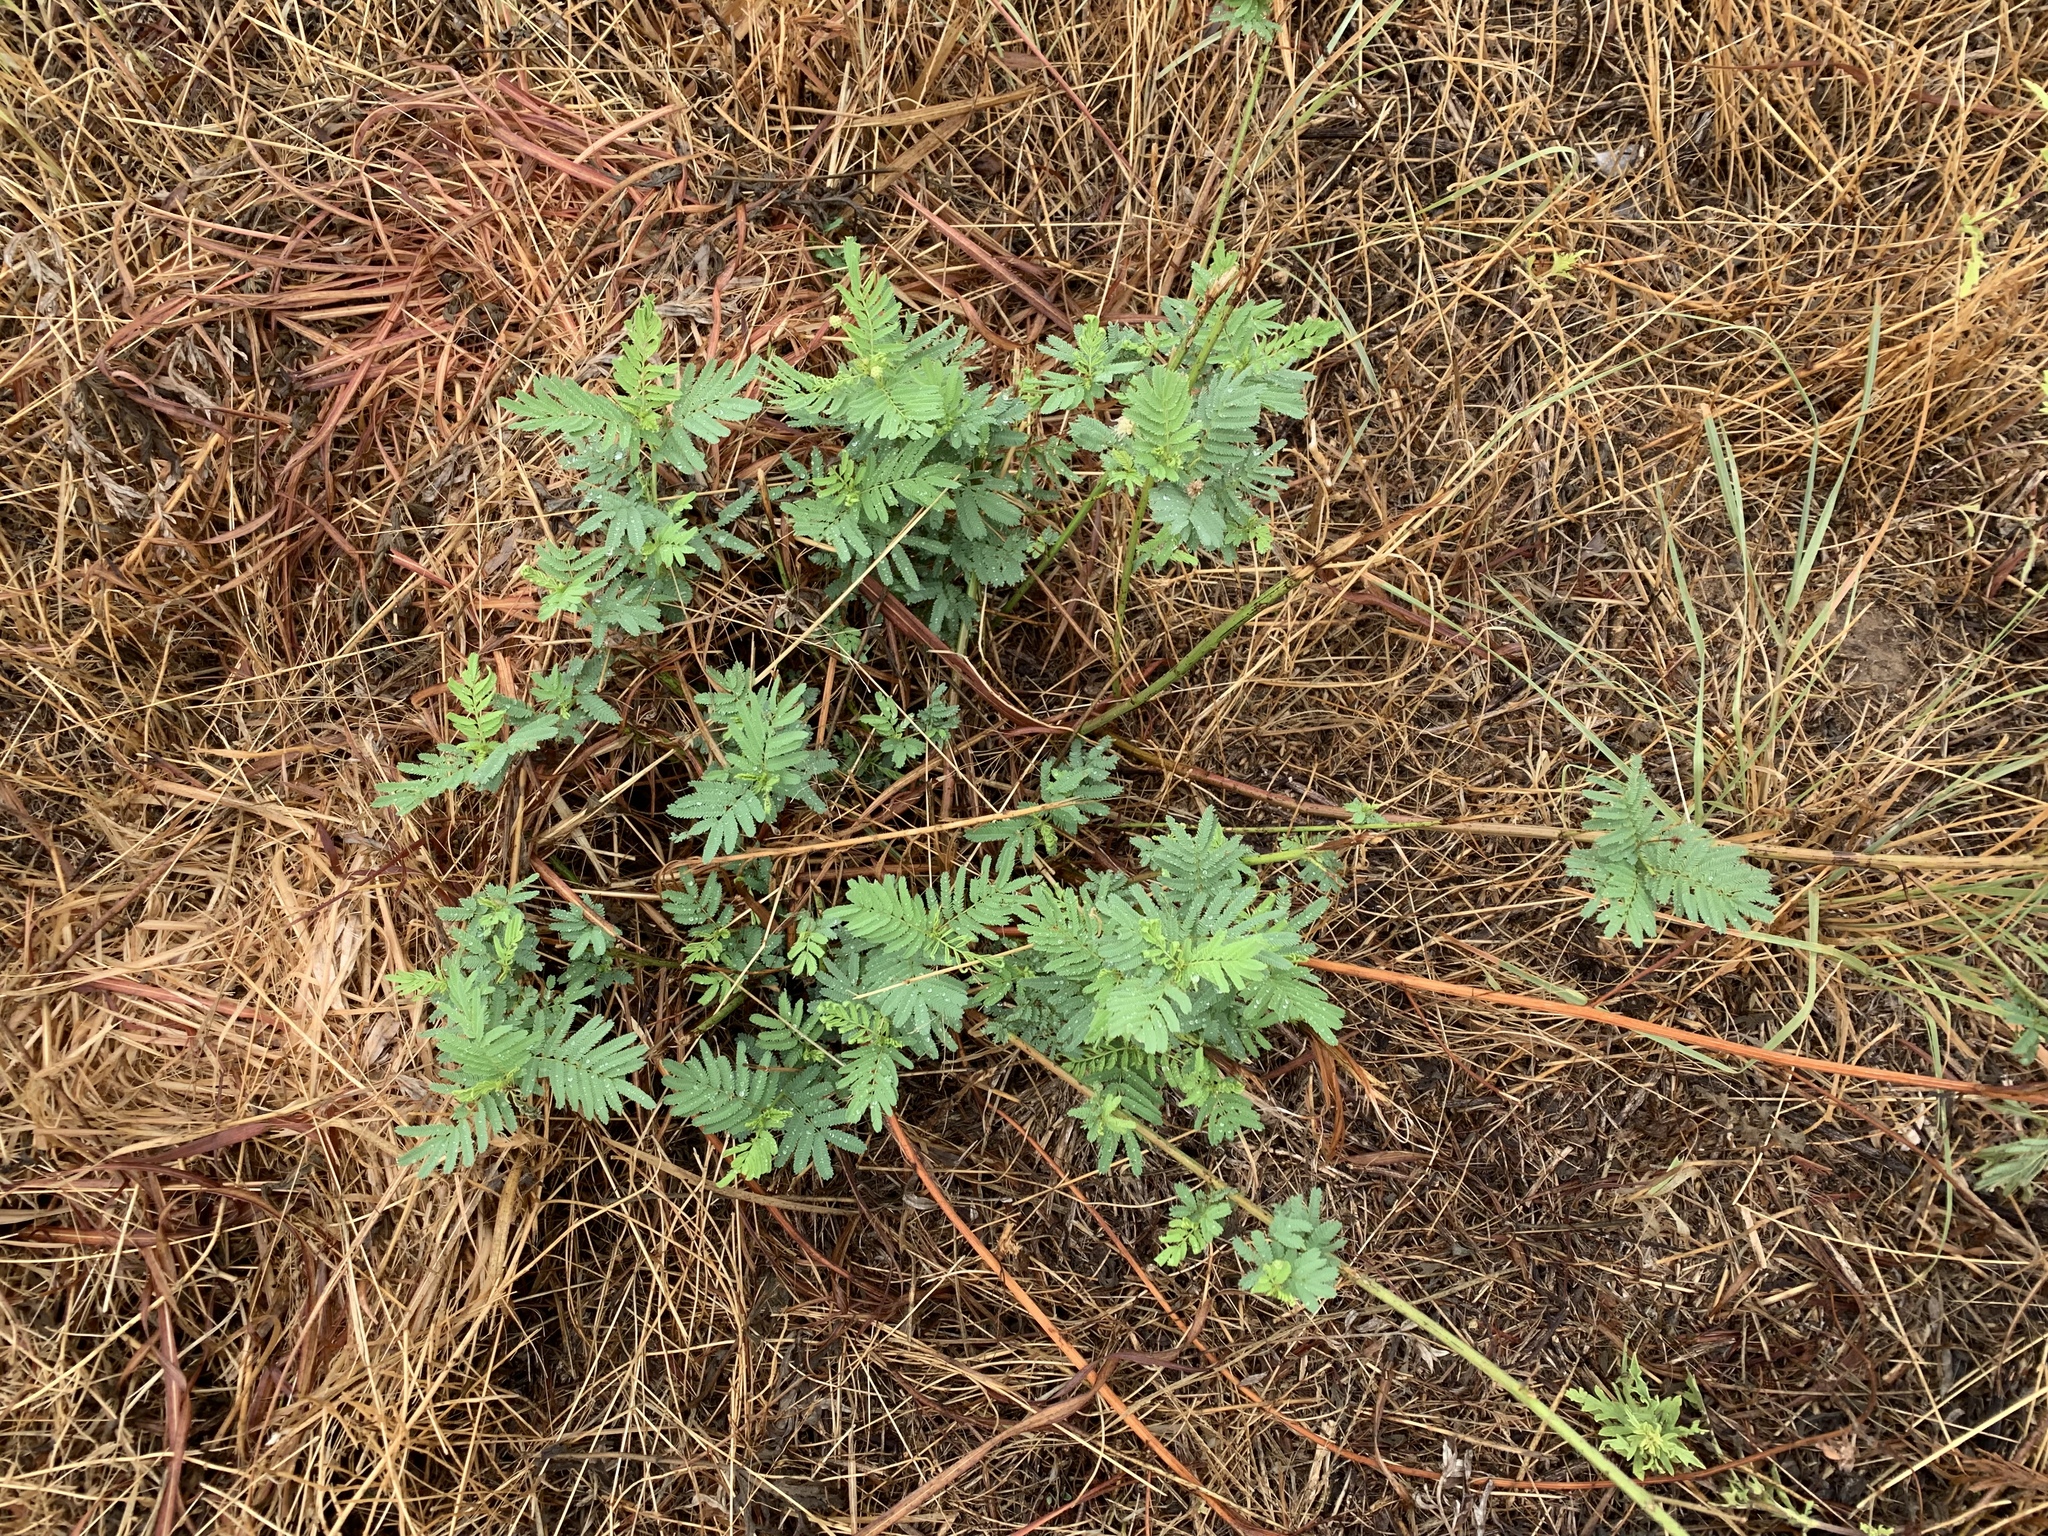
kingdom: Plantae
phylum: Tracheophyta
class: Magnoliopsida
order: Fabales
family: Fabaceae
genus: Desmanthus
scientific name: Desmanthus illinoensis
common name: Illinois bundle-flower
